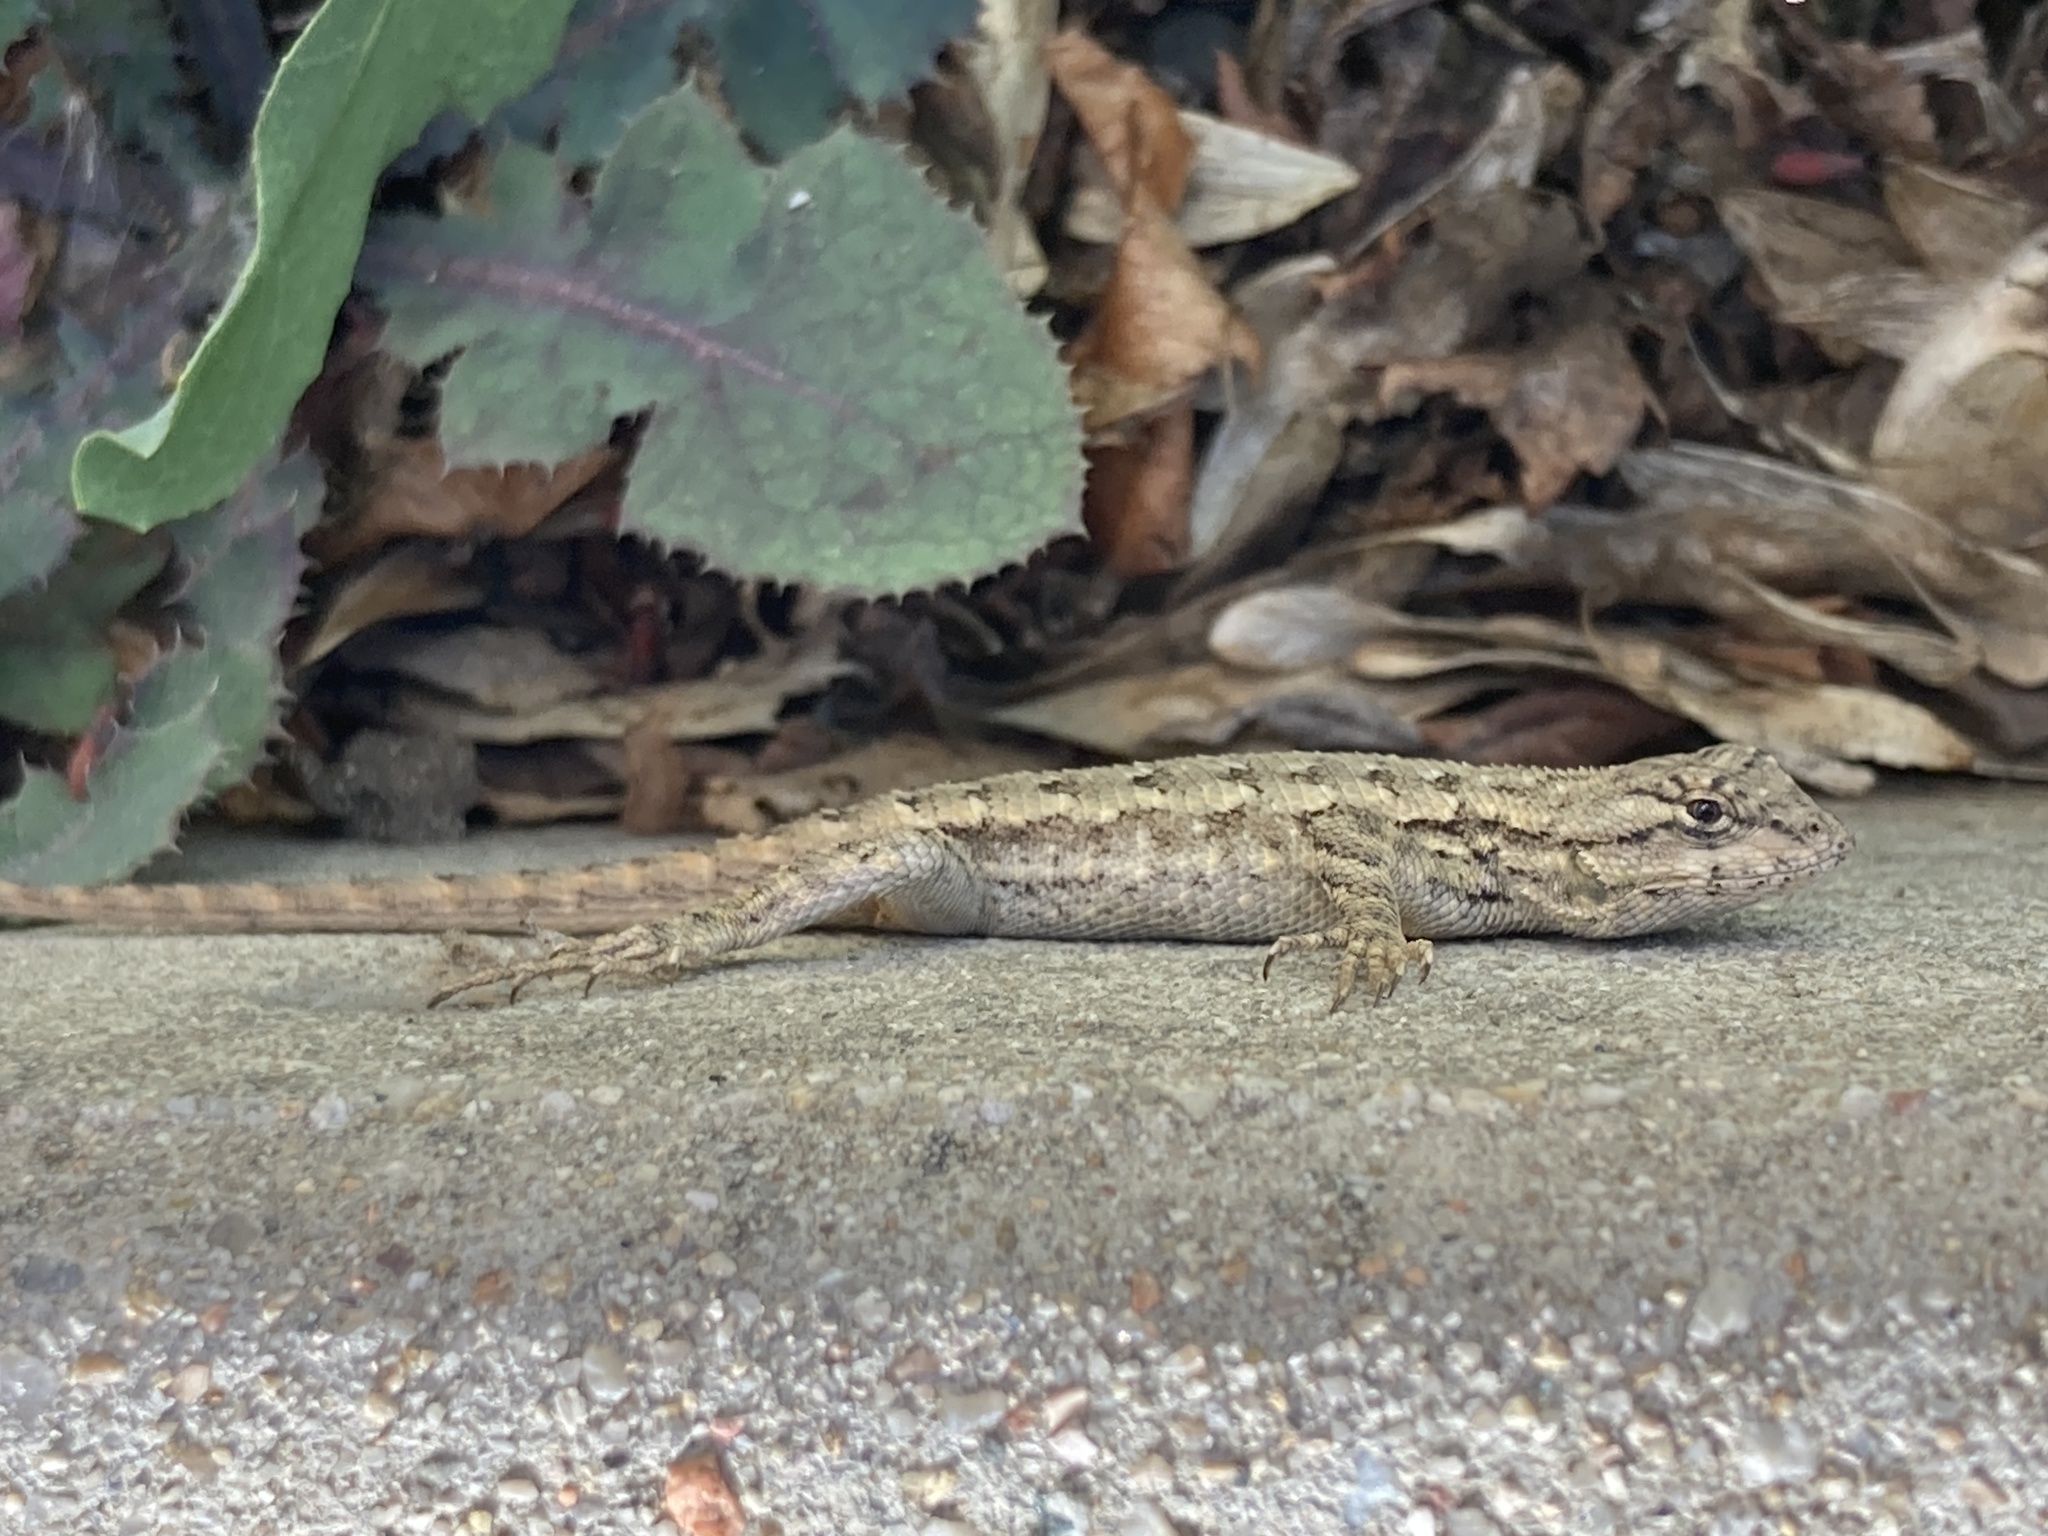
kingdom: Animalia
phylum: Chordata
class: Squamata
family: Phrynosomatidae
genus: Sceloporus
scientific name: Sceloporus occidentalis
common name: Western fence lizard
